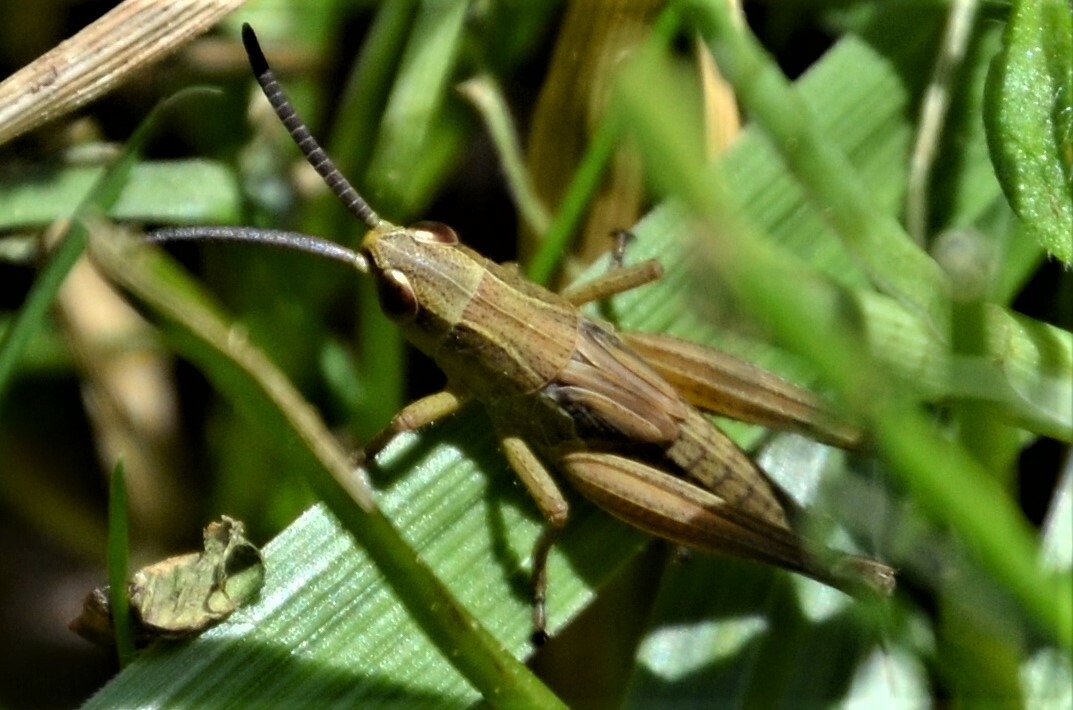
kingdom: Animalia
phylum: Arthropoda
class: Insecta
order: Orthoptera
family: Acrididae
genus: Pseudochorthippus
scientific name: Pseudochorthippus parallelus
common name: Meadow grasshopper
